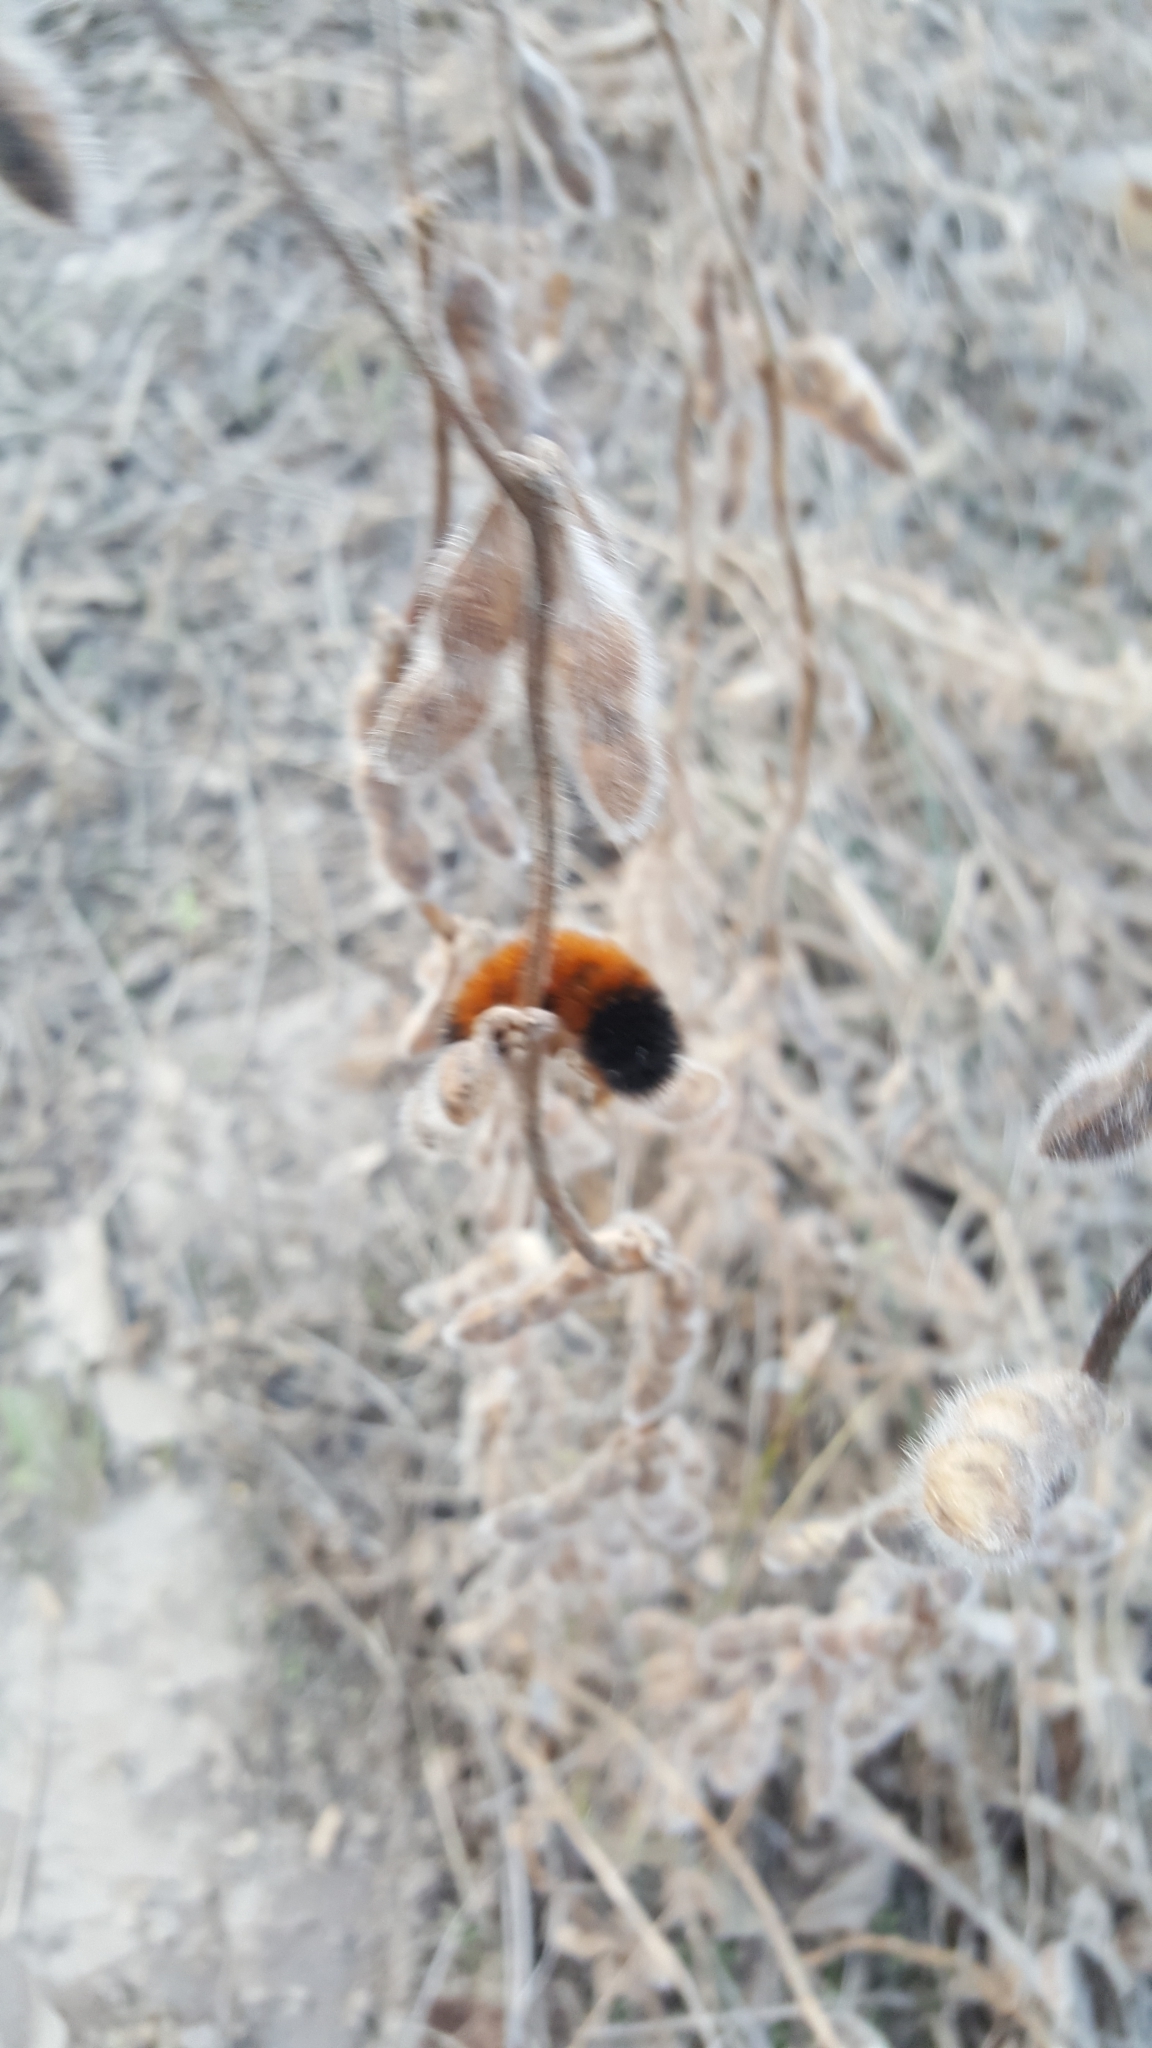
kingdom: Animalia
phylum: Arthropoda
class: Insecta
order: Lepidoptera
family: Erebidae
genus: Pyrrharctia
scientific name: Pyrrharctia isabella
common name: Isabella tiger moth
